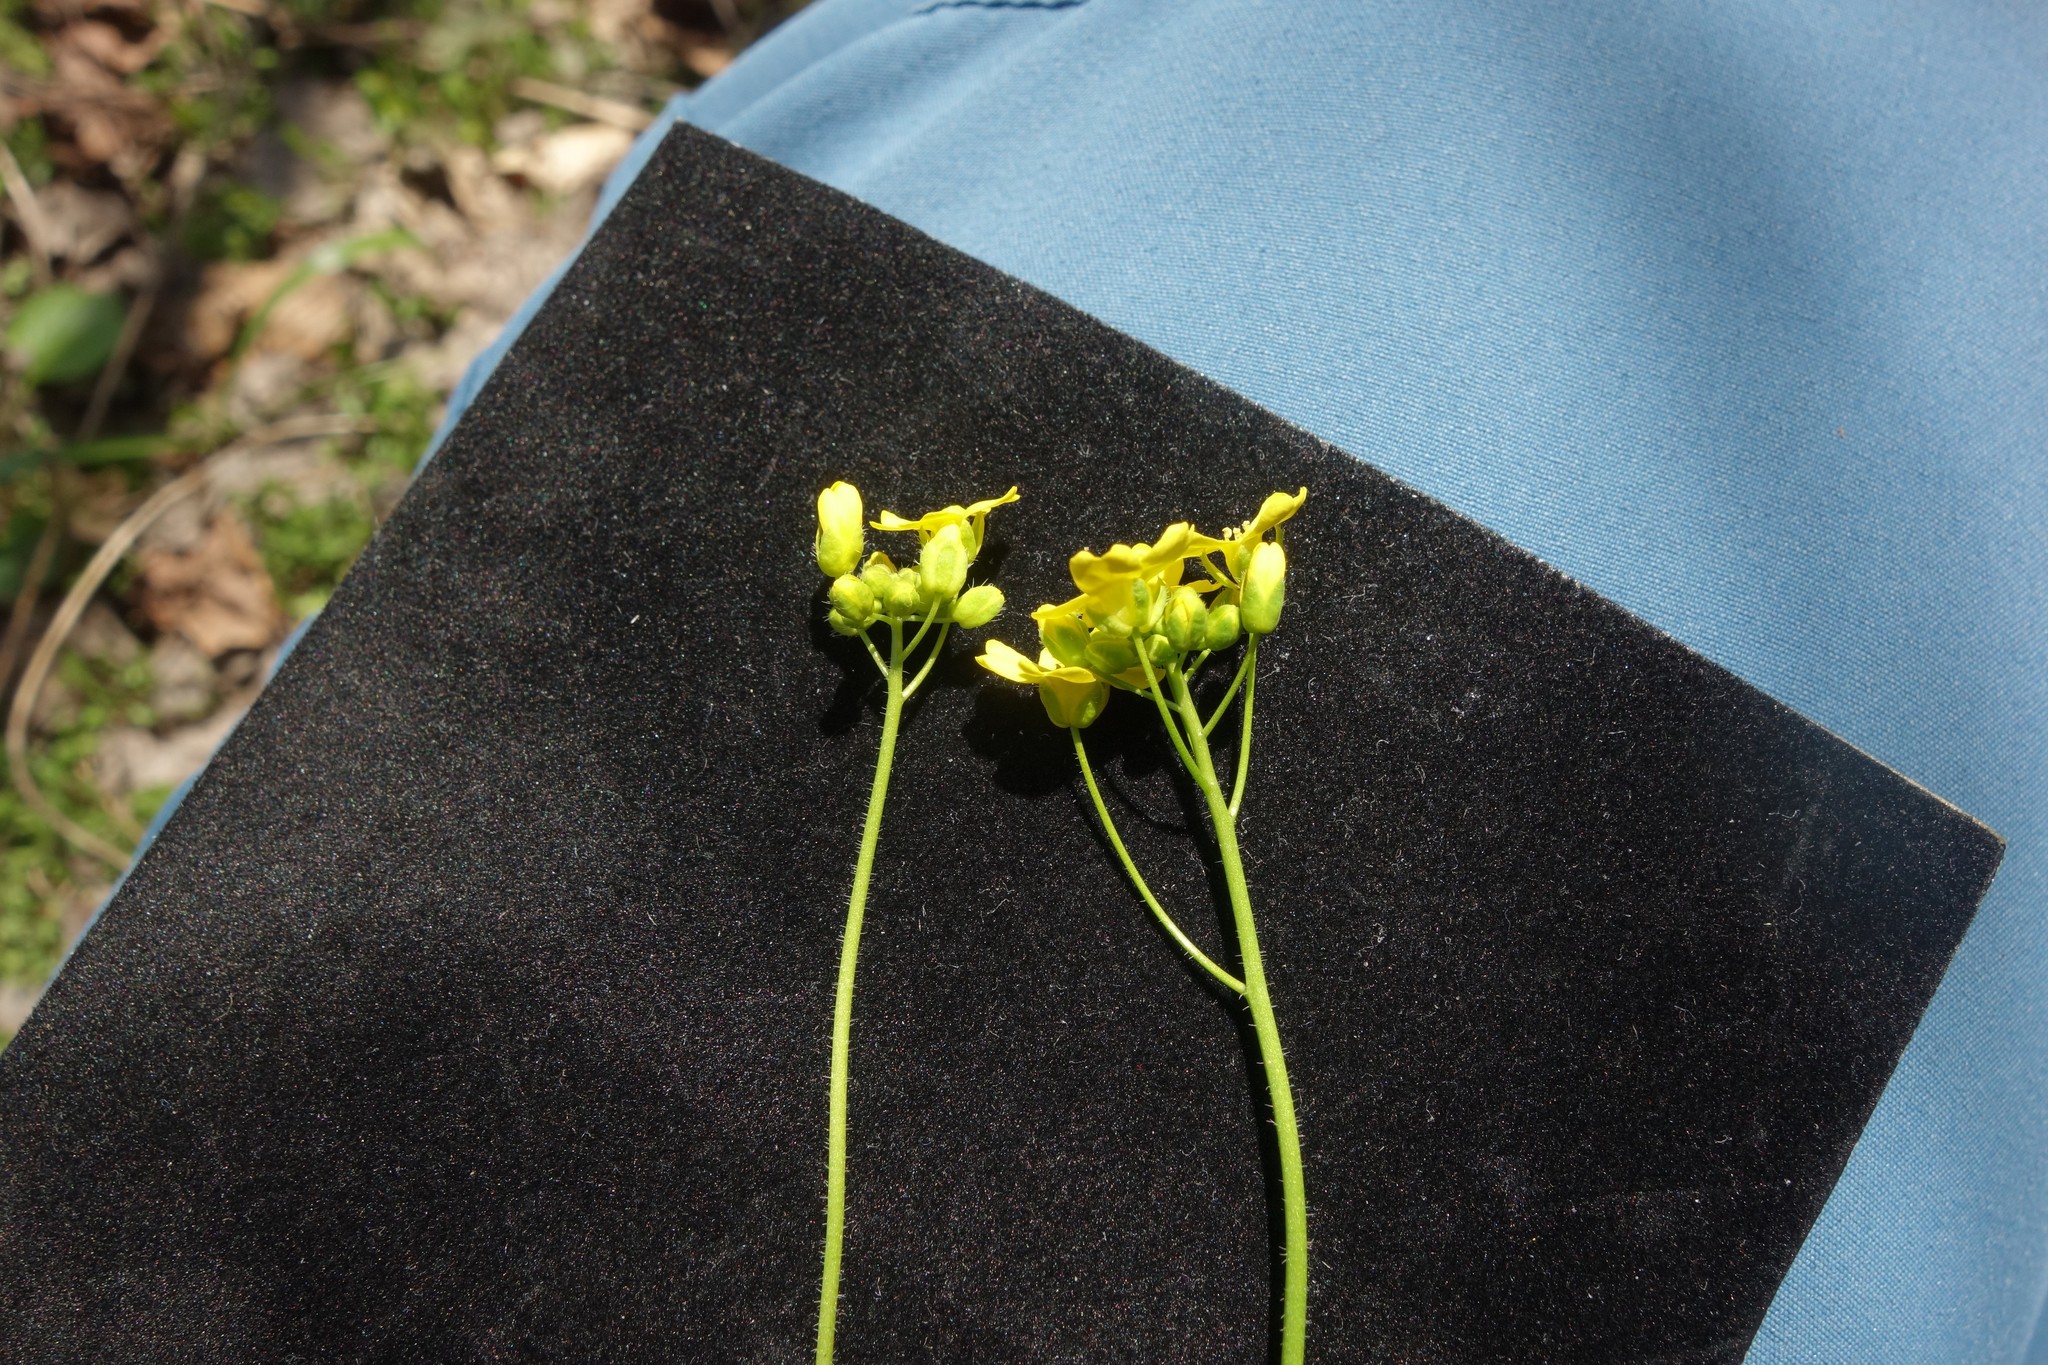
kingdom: Plantae
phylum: Tracheophyta
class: Magnoliopsida
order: Brassicales
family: Brassicaceae
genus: Draba
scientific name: Draba sibirica
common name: Siberian draba
